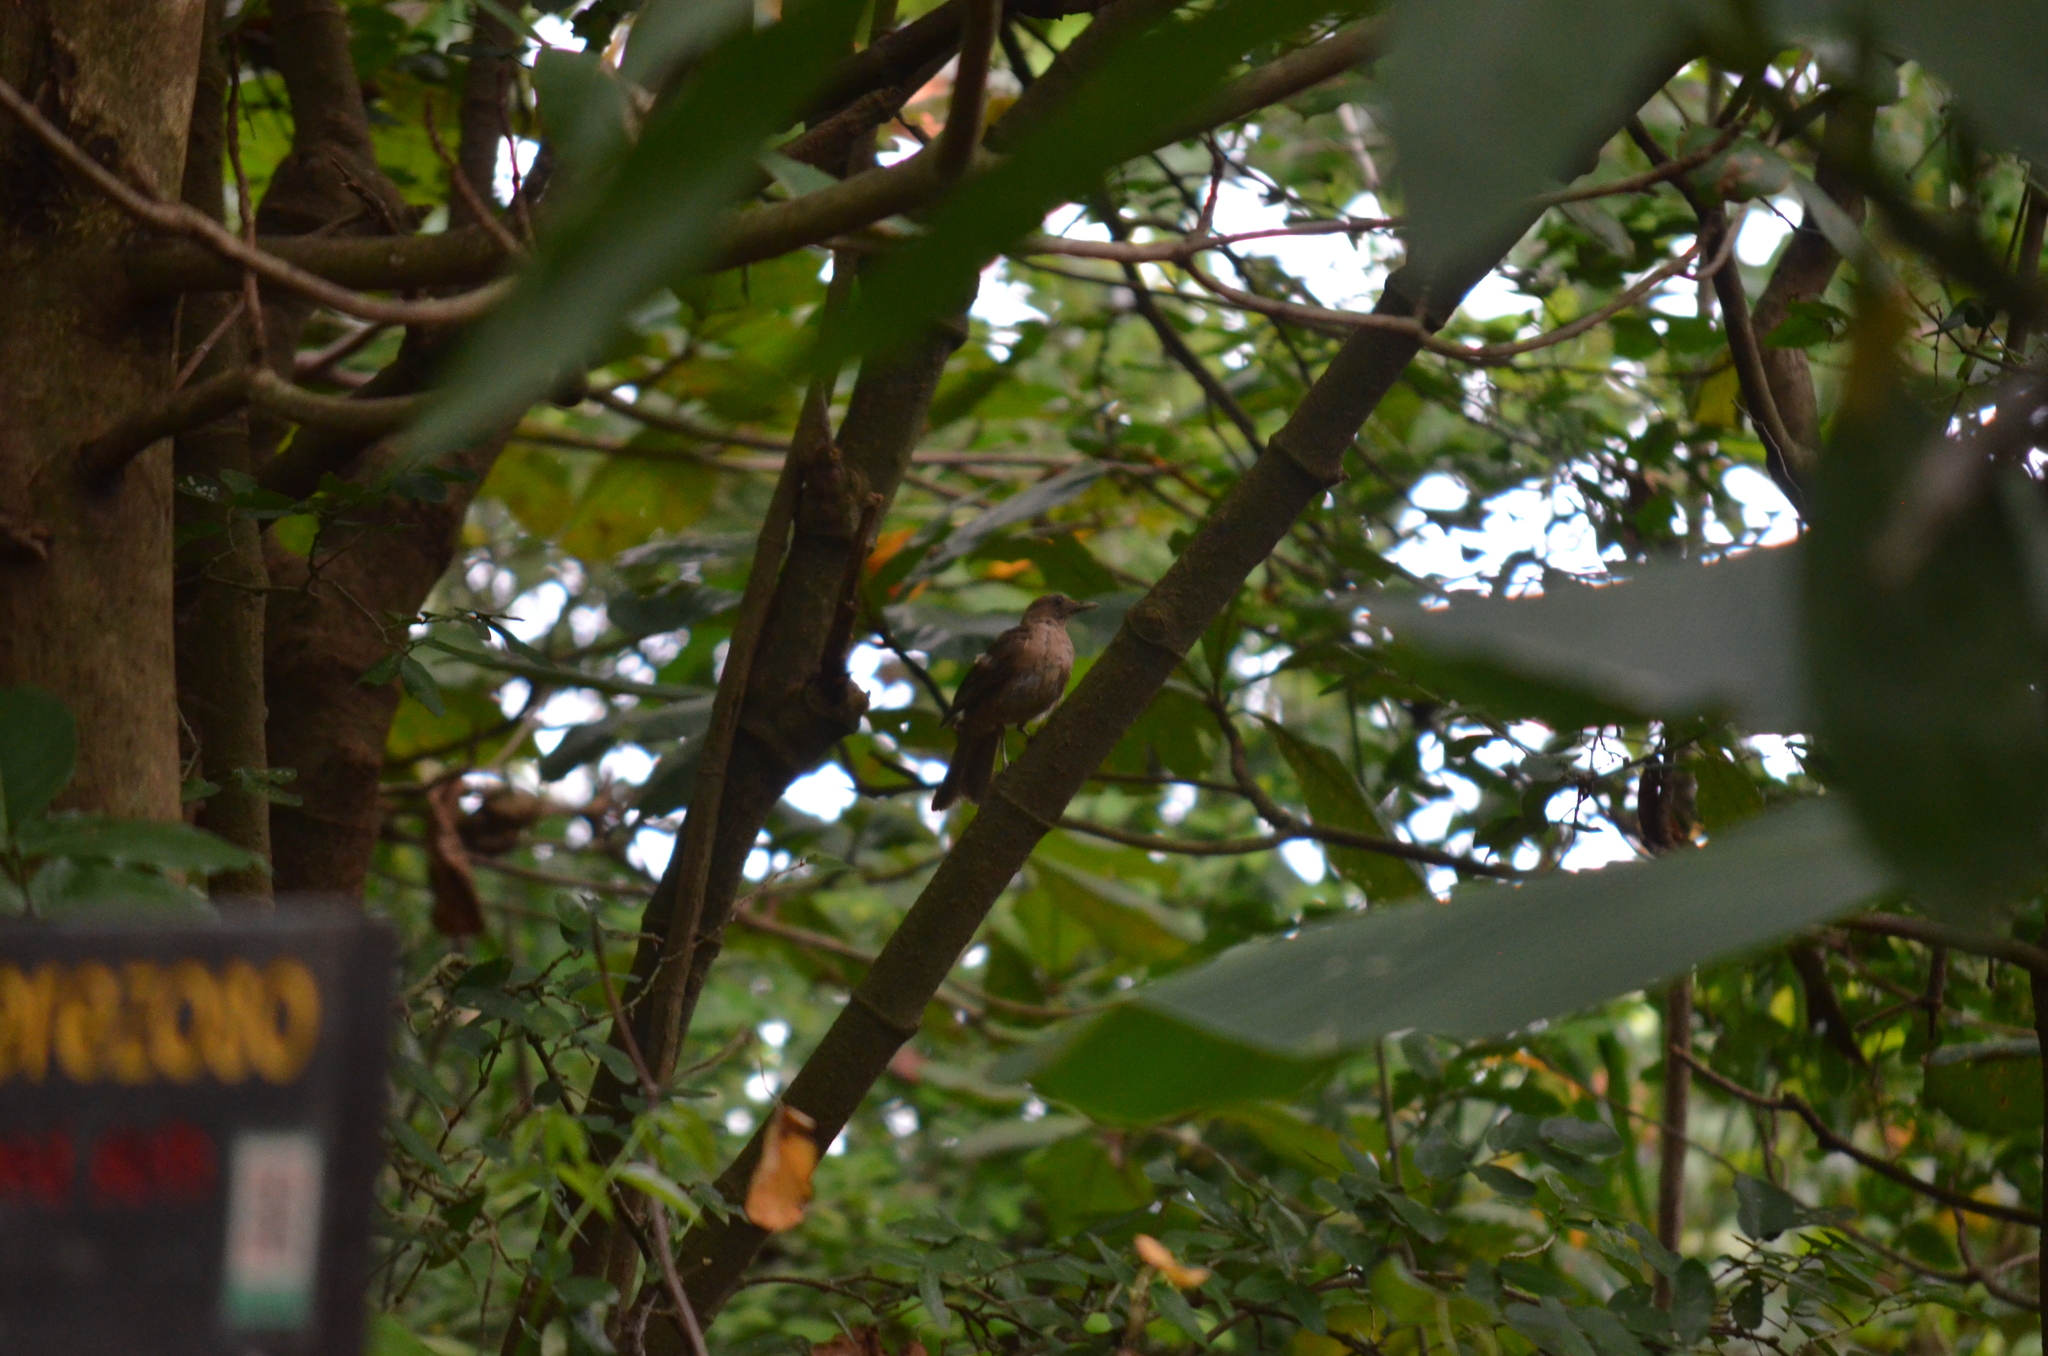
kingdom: Animalia
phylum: Chordata
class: Aves
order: Passeriformes
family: Turdidae
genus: Turdus
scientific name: Turdus grayi
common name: Clay-colored thrush
